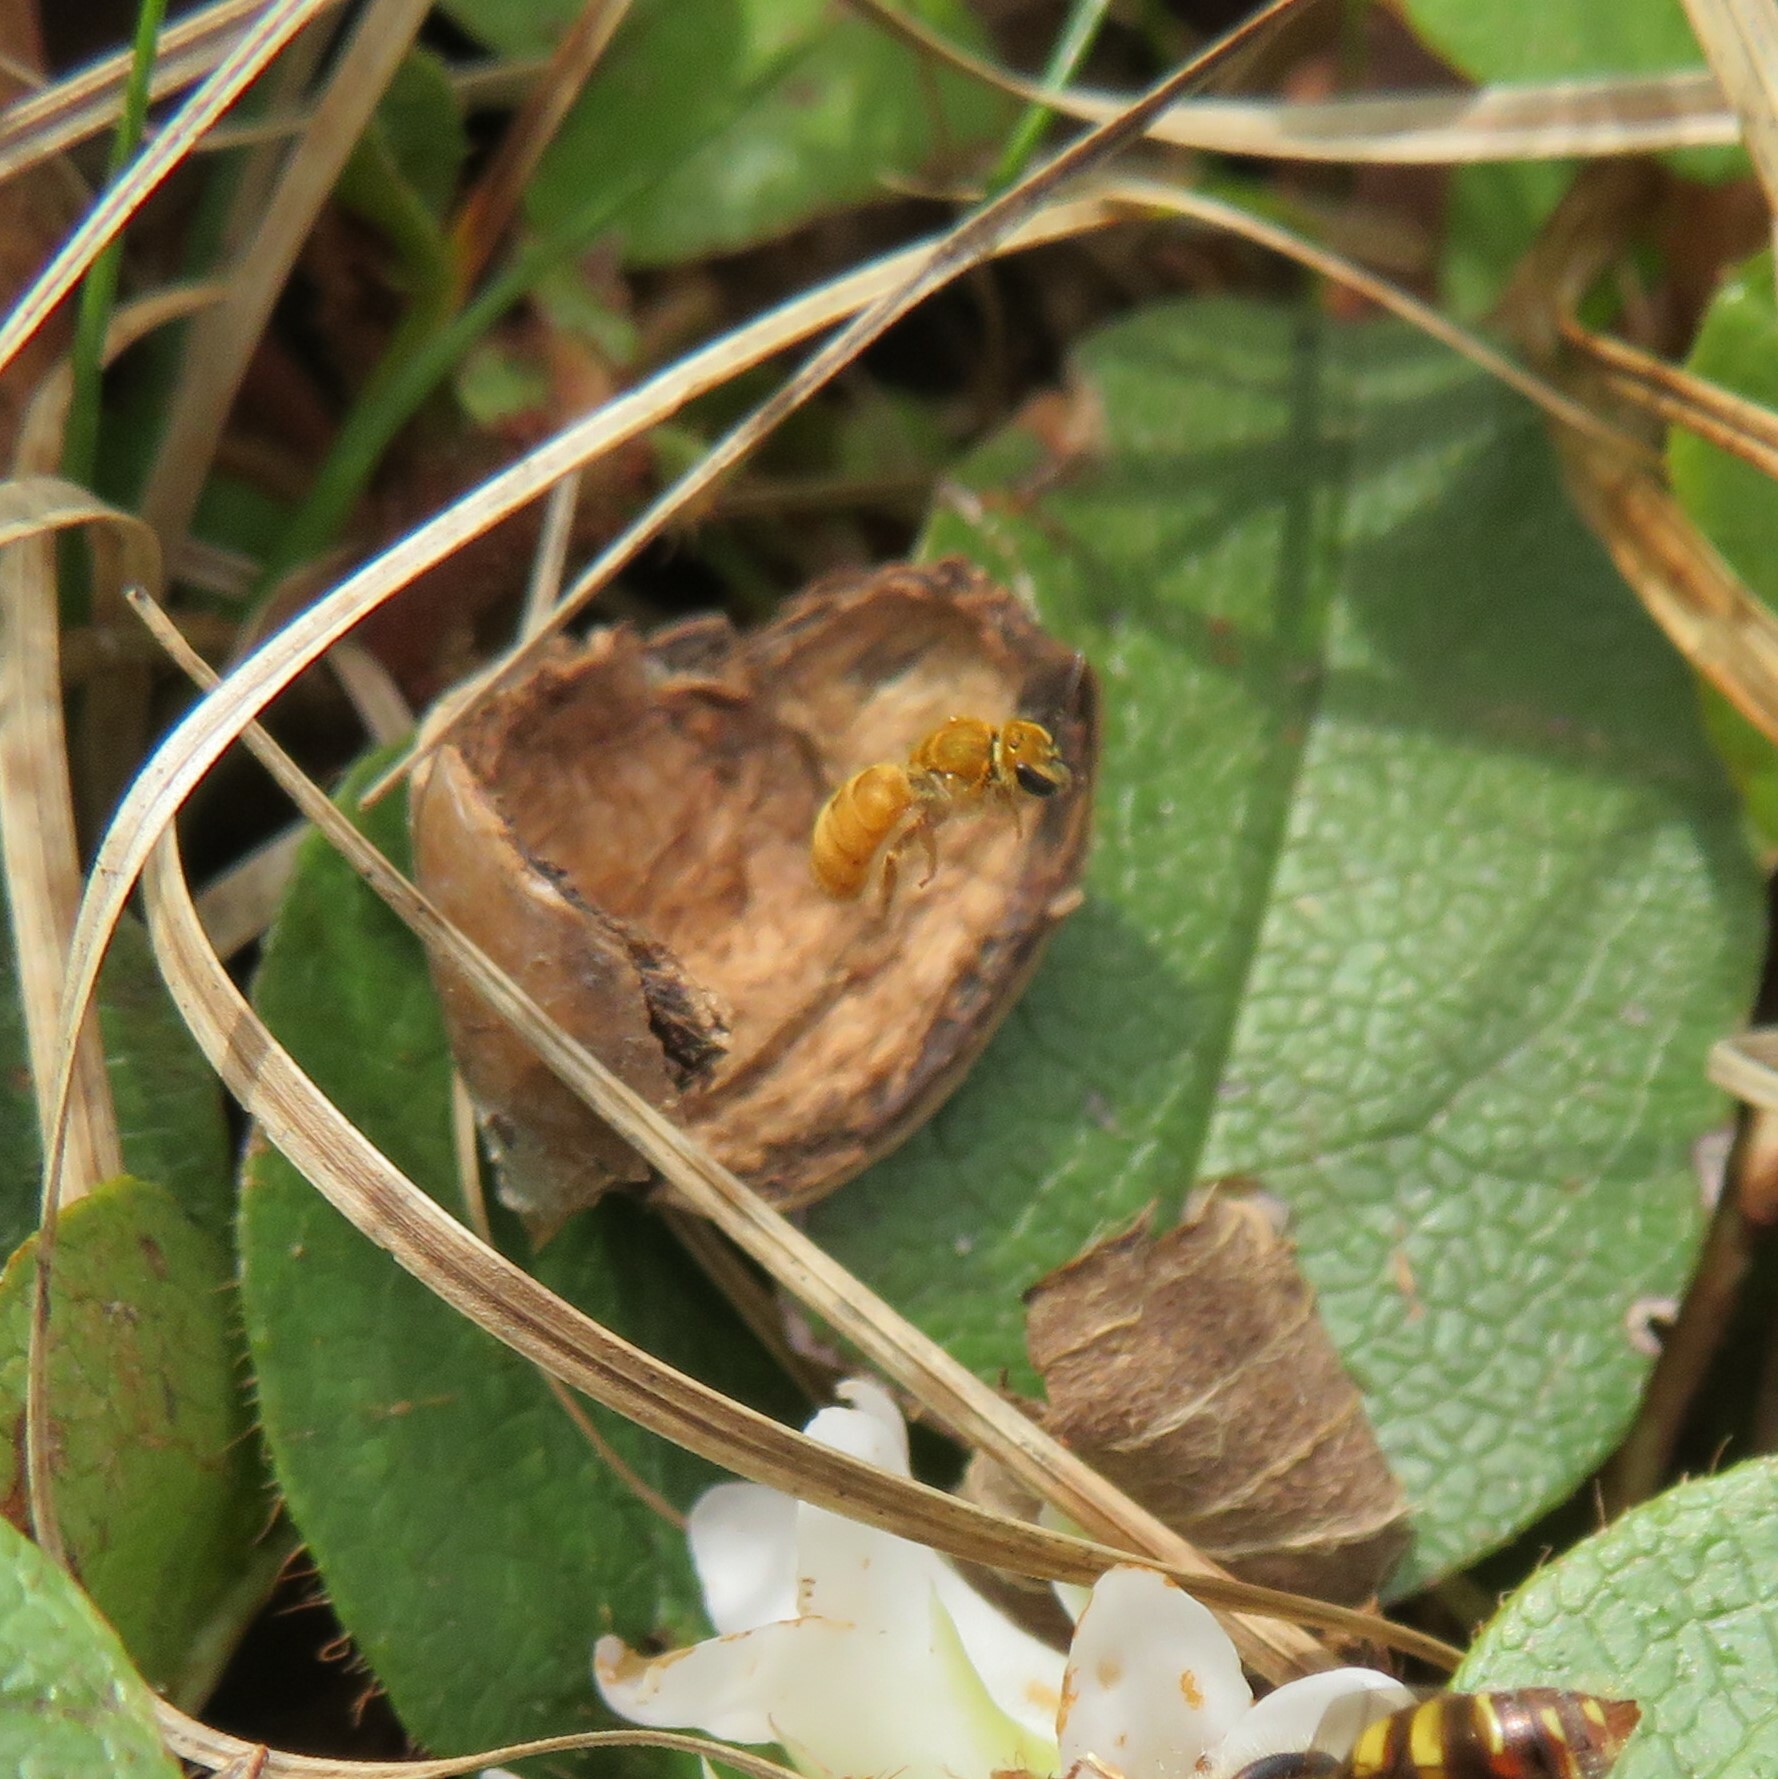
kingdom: Animalia
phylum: Arthropoda
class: Insecta
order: Hymenoptera
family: Halictidae
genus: Lasioglossum
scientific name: Lasioglossum vierecki
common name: Viereck's sweat bee
